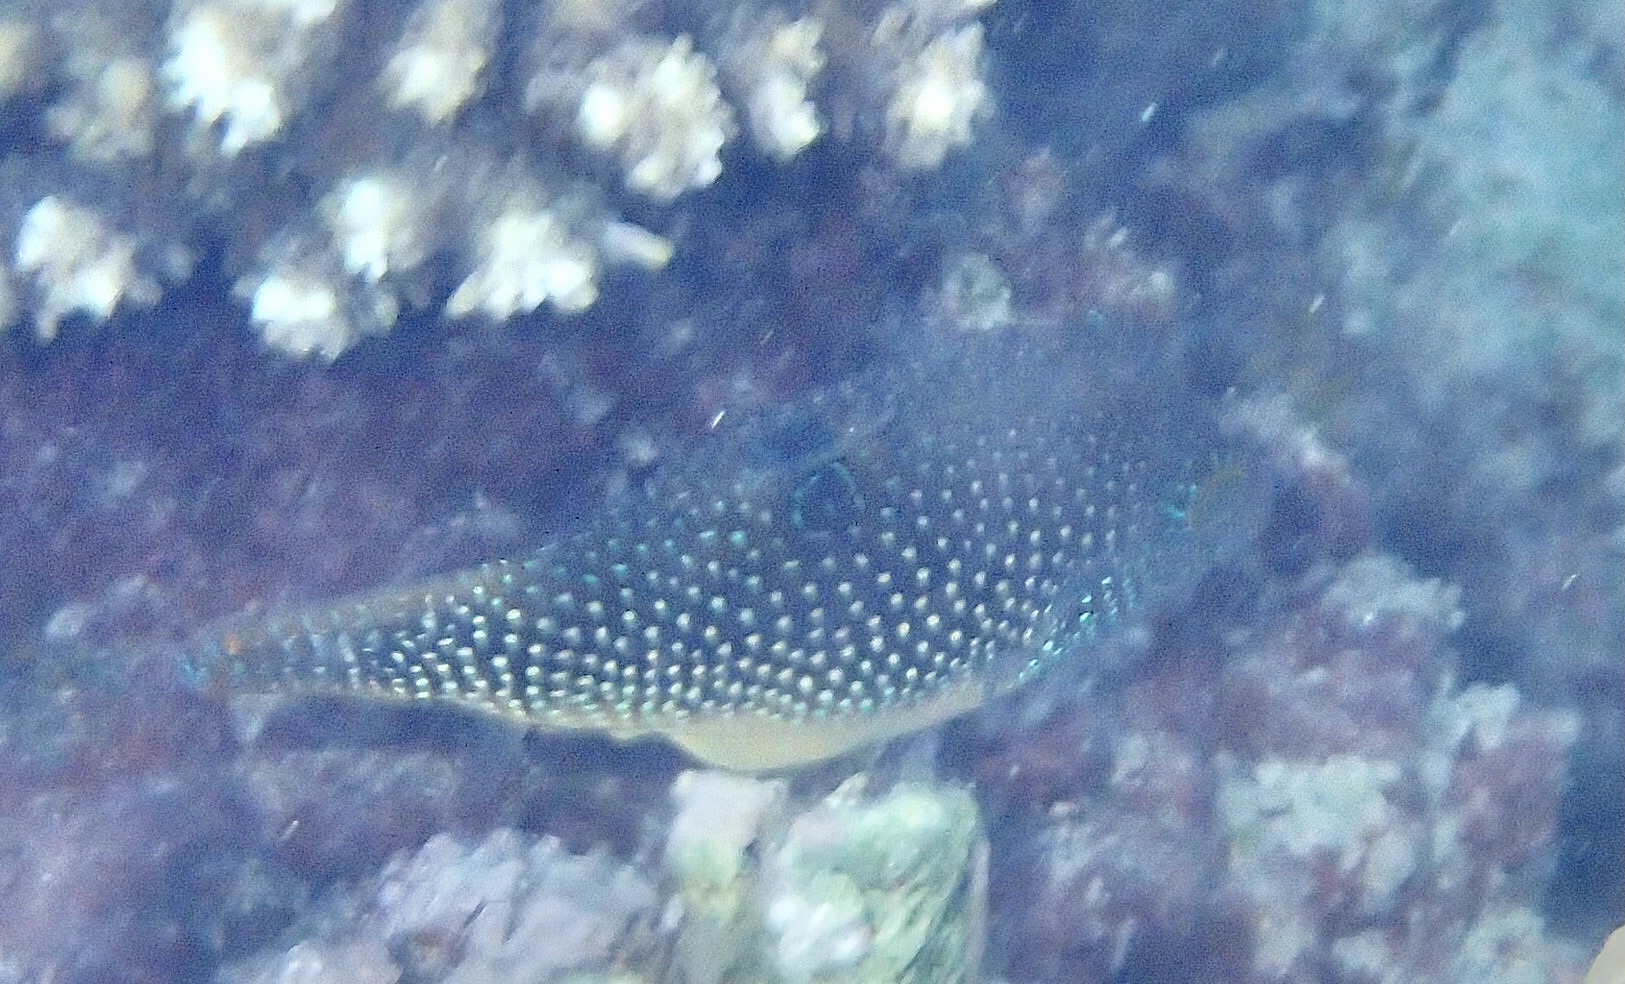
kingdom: Animalia
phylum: Chordata
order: Tetraodontiformes
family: Tetraodontidae
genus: Canthigaster
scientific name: Canthigaster margaritata
